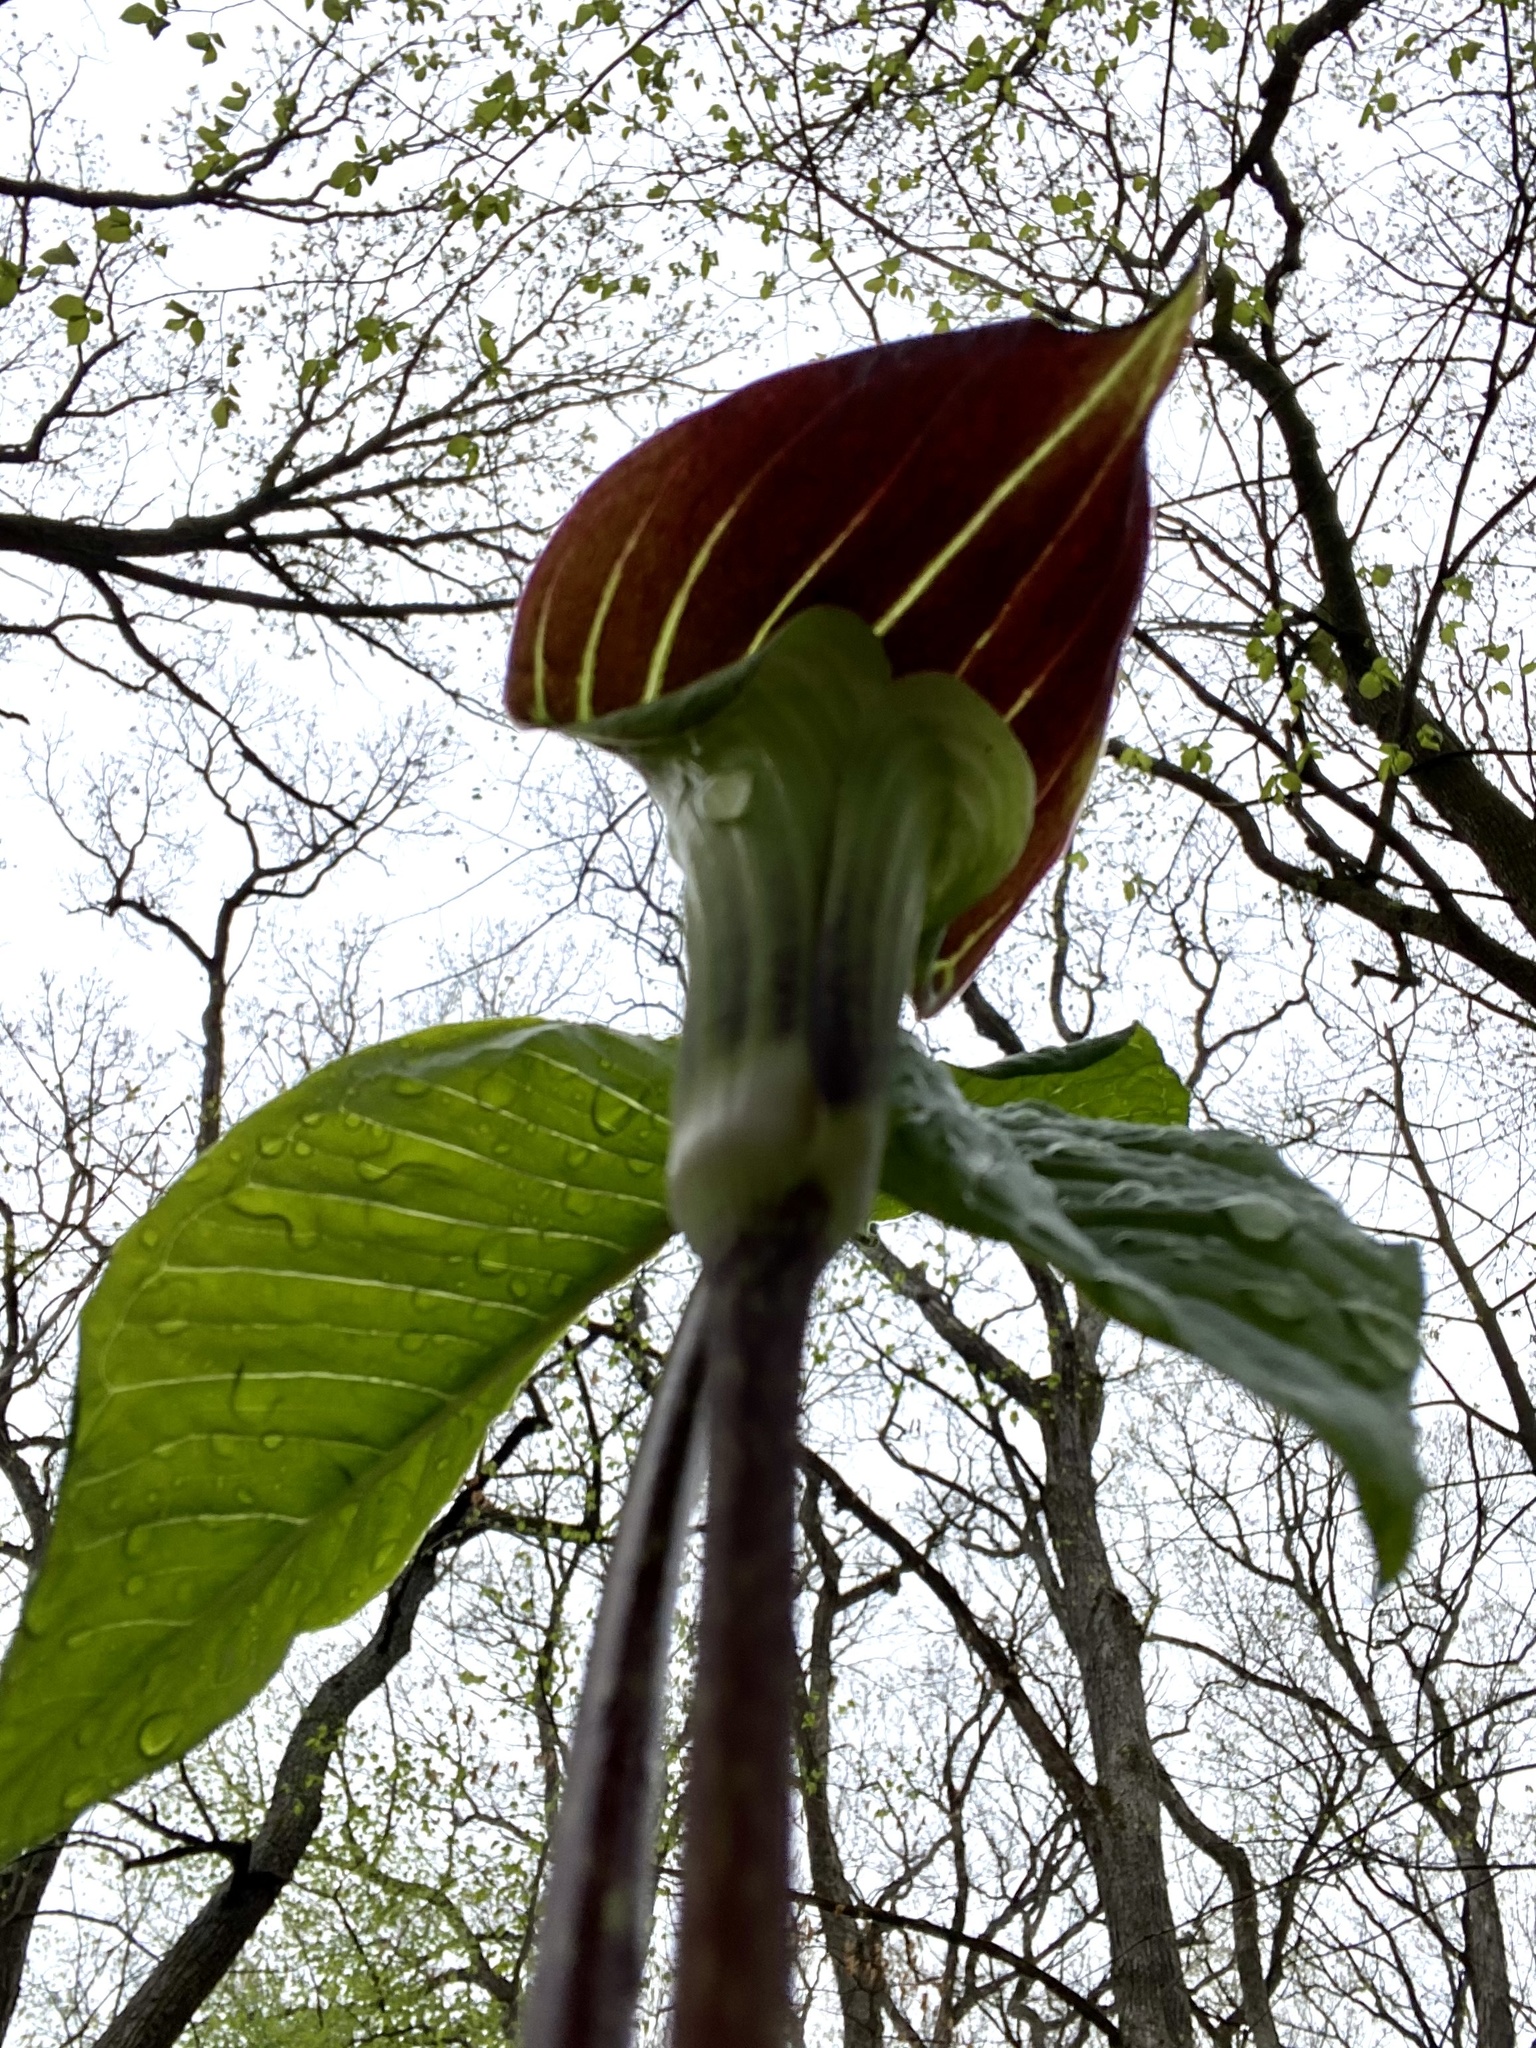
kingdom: Plantae
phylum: Tracheophyta
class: Liliopsida
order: Alismatales
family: Araceae
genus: Arisaema
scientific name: Arisaema triphyllum
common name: Jack-in-the-pulpit
